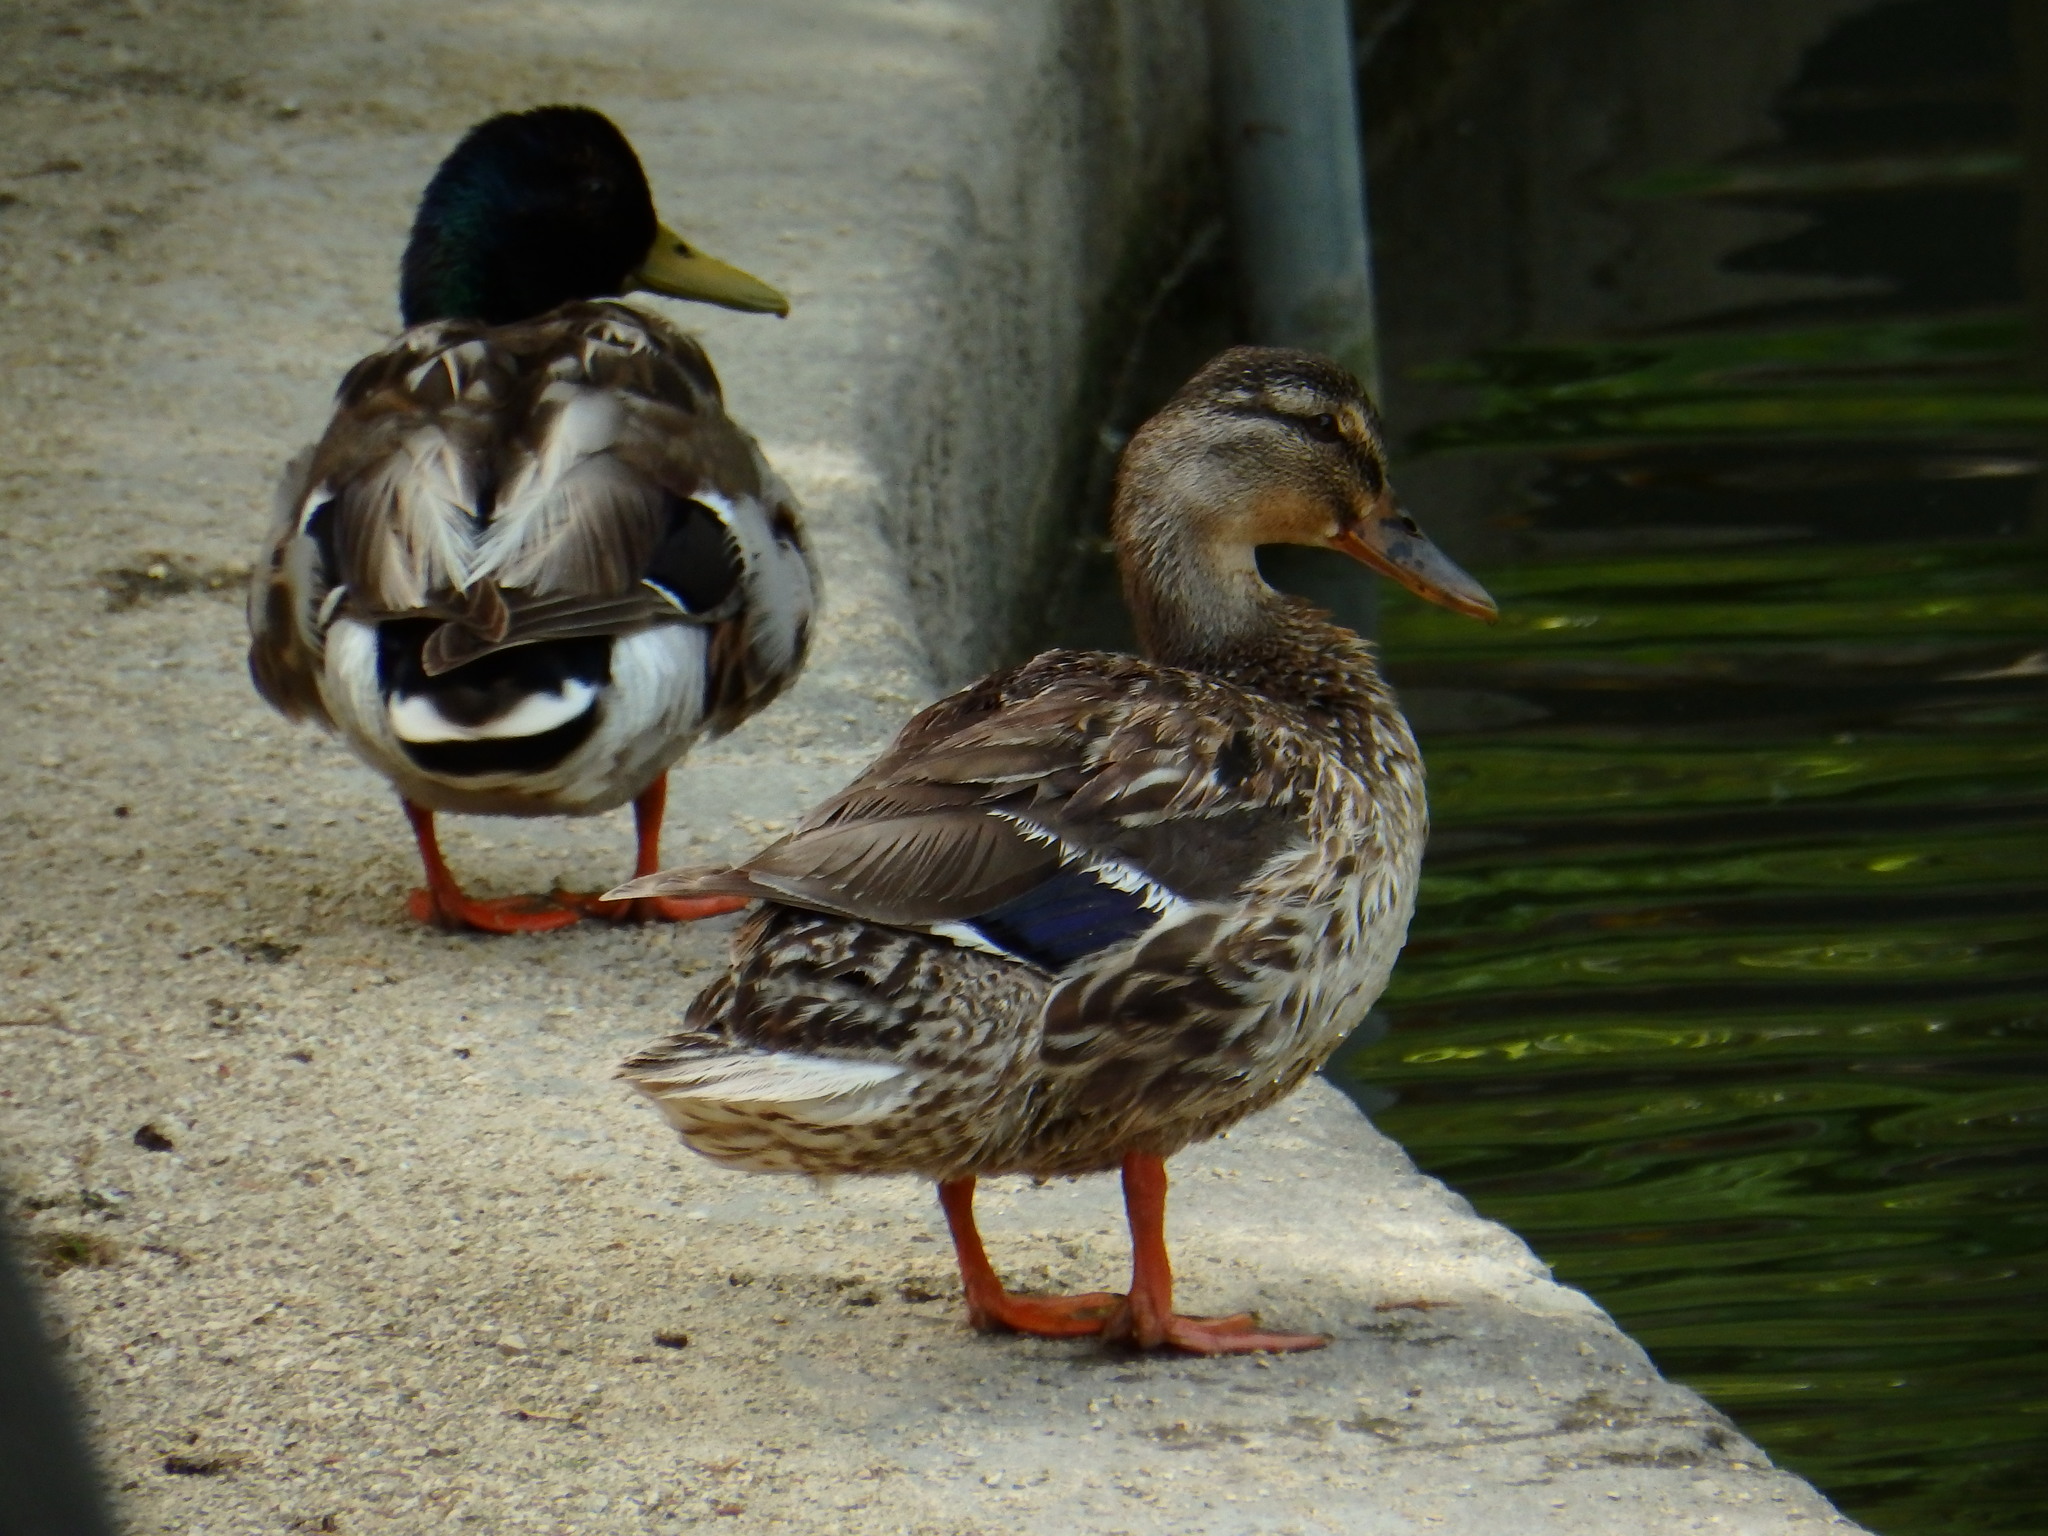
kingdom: Animalia
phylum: Chordata
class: Aves
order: Anseriformes
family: Anatidae
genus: Anas
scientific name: Anas platyrhynchos
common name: Mallard
